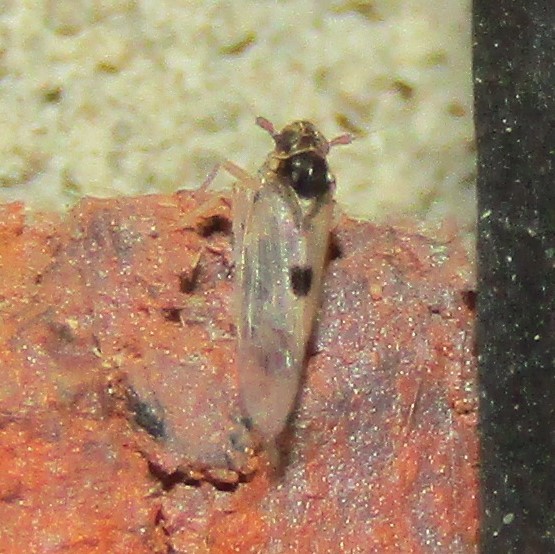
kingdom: Animalia
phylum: Arthropoda
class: Insecta
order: Hemiptera
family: Delphacidae
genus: Chionomus
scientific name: Chionomus
